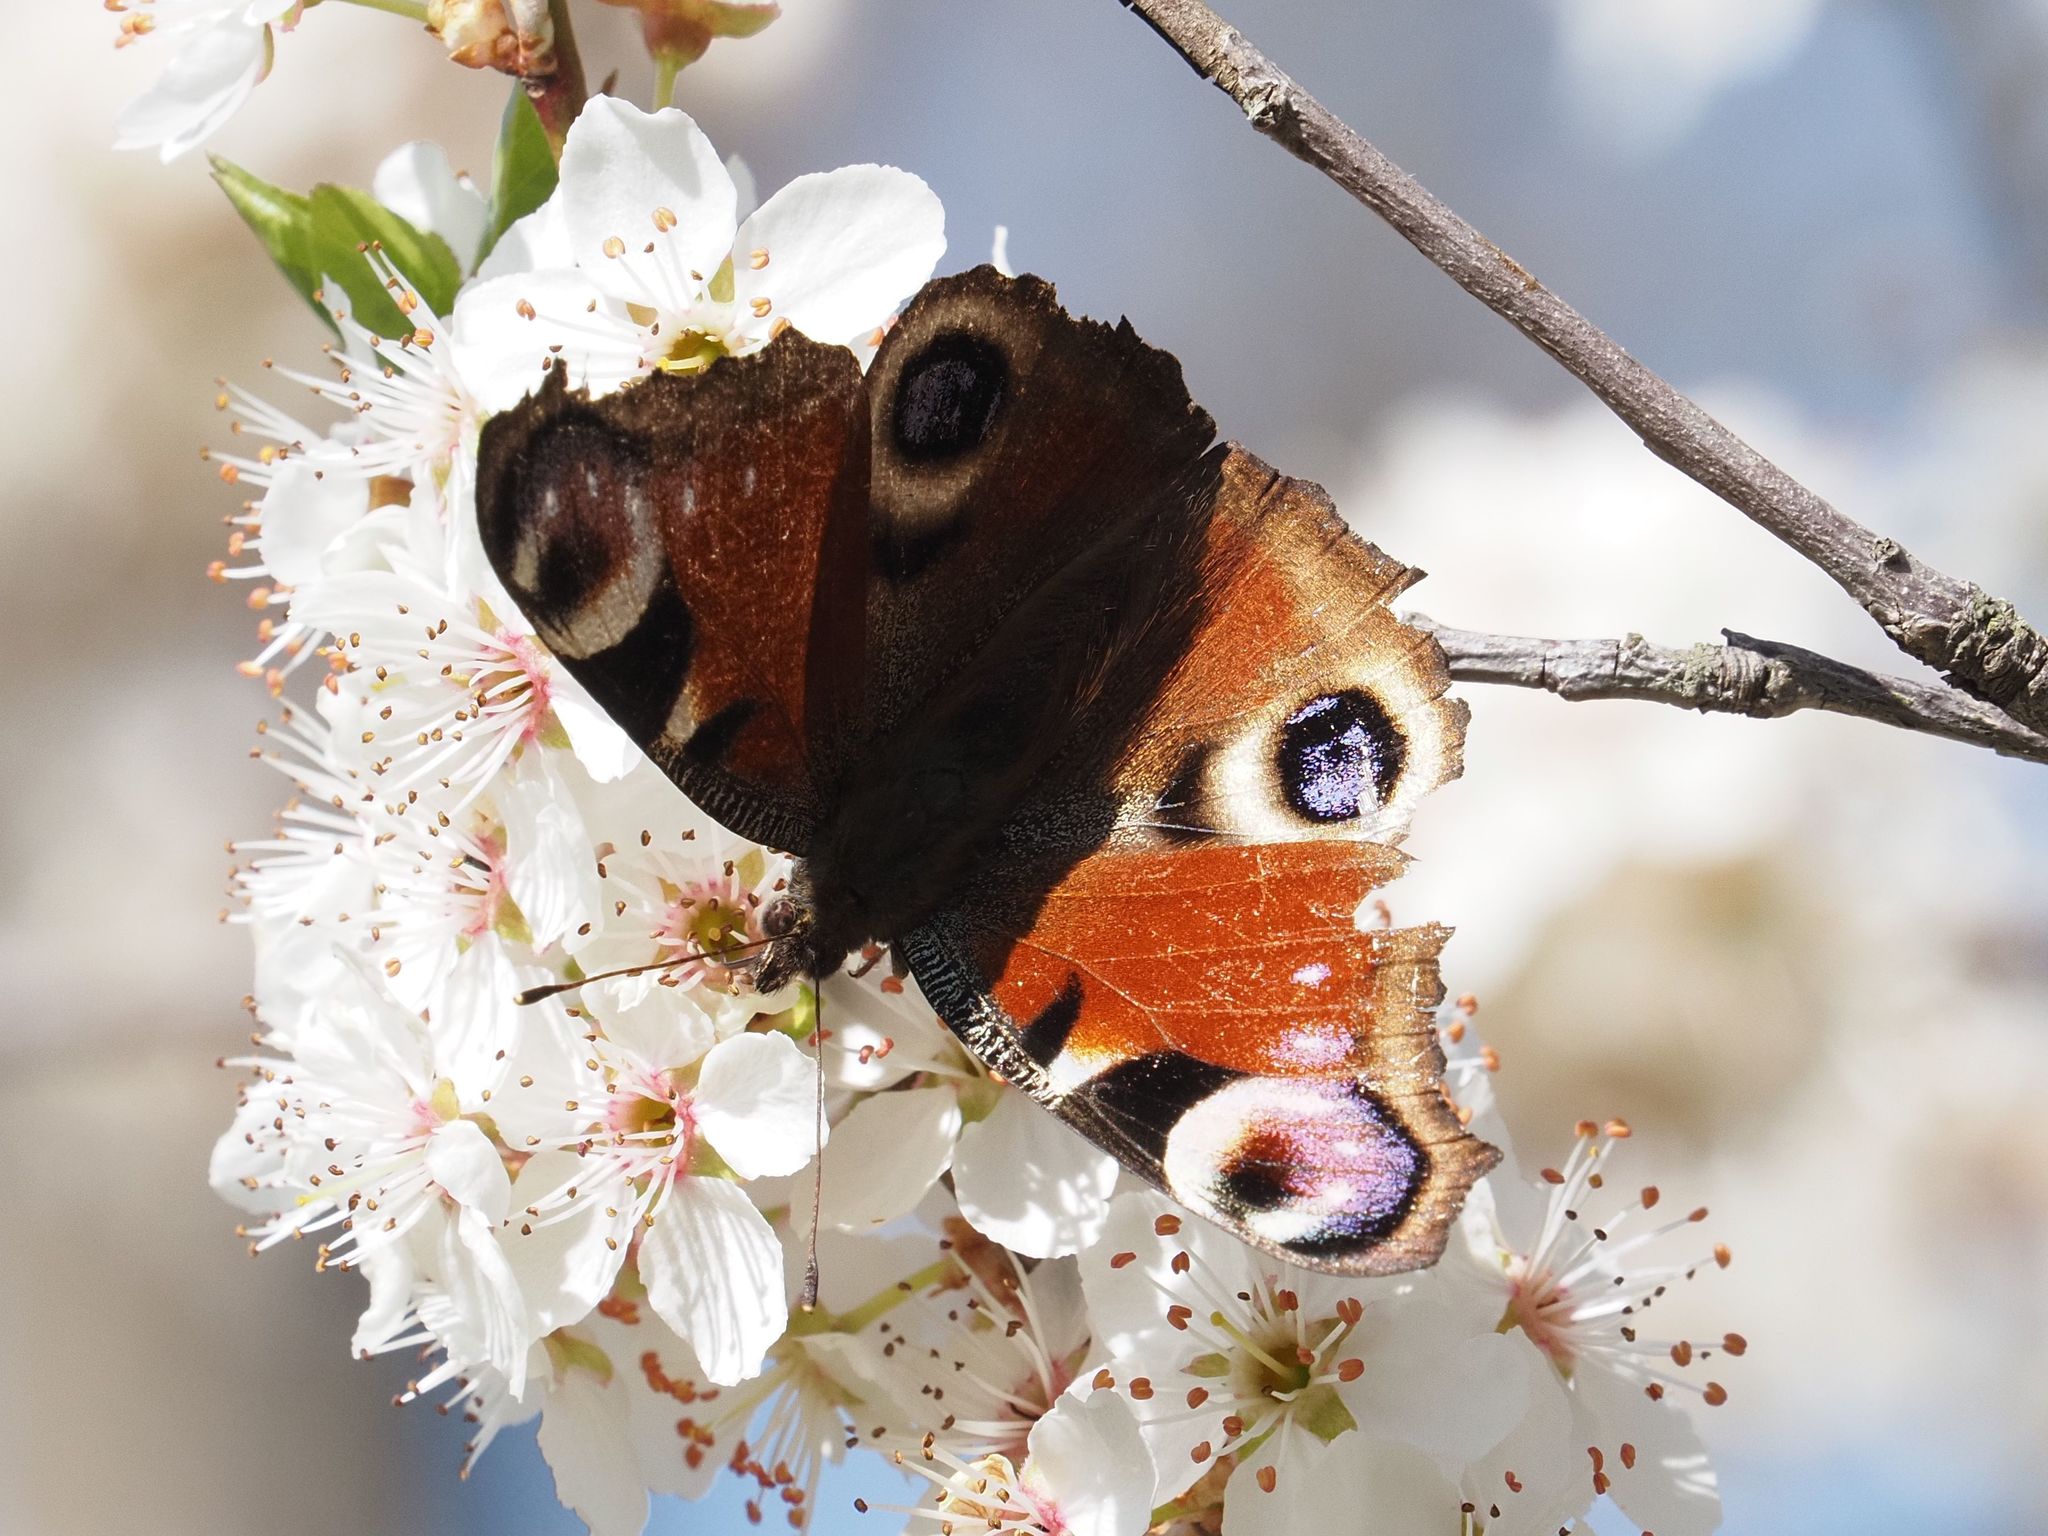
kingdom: Animalia
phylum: Arthropoda
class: Insecta
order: Lepidoptera
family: Nymphalidae
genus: Aglais
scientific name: Aglais io
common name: Peacock
